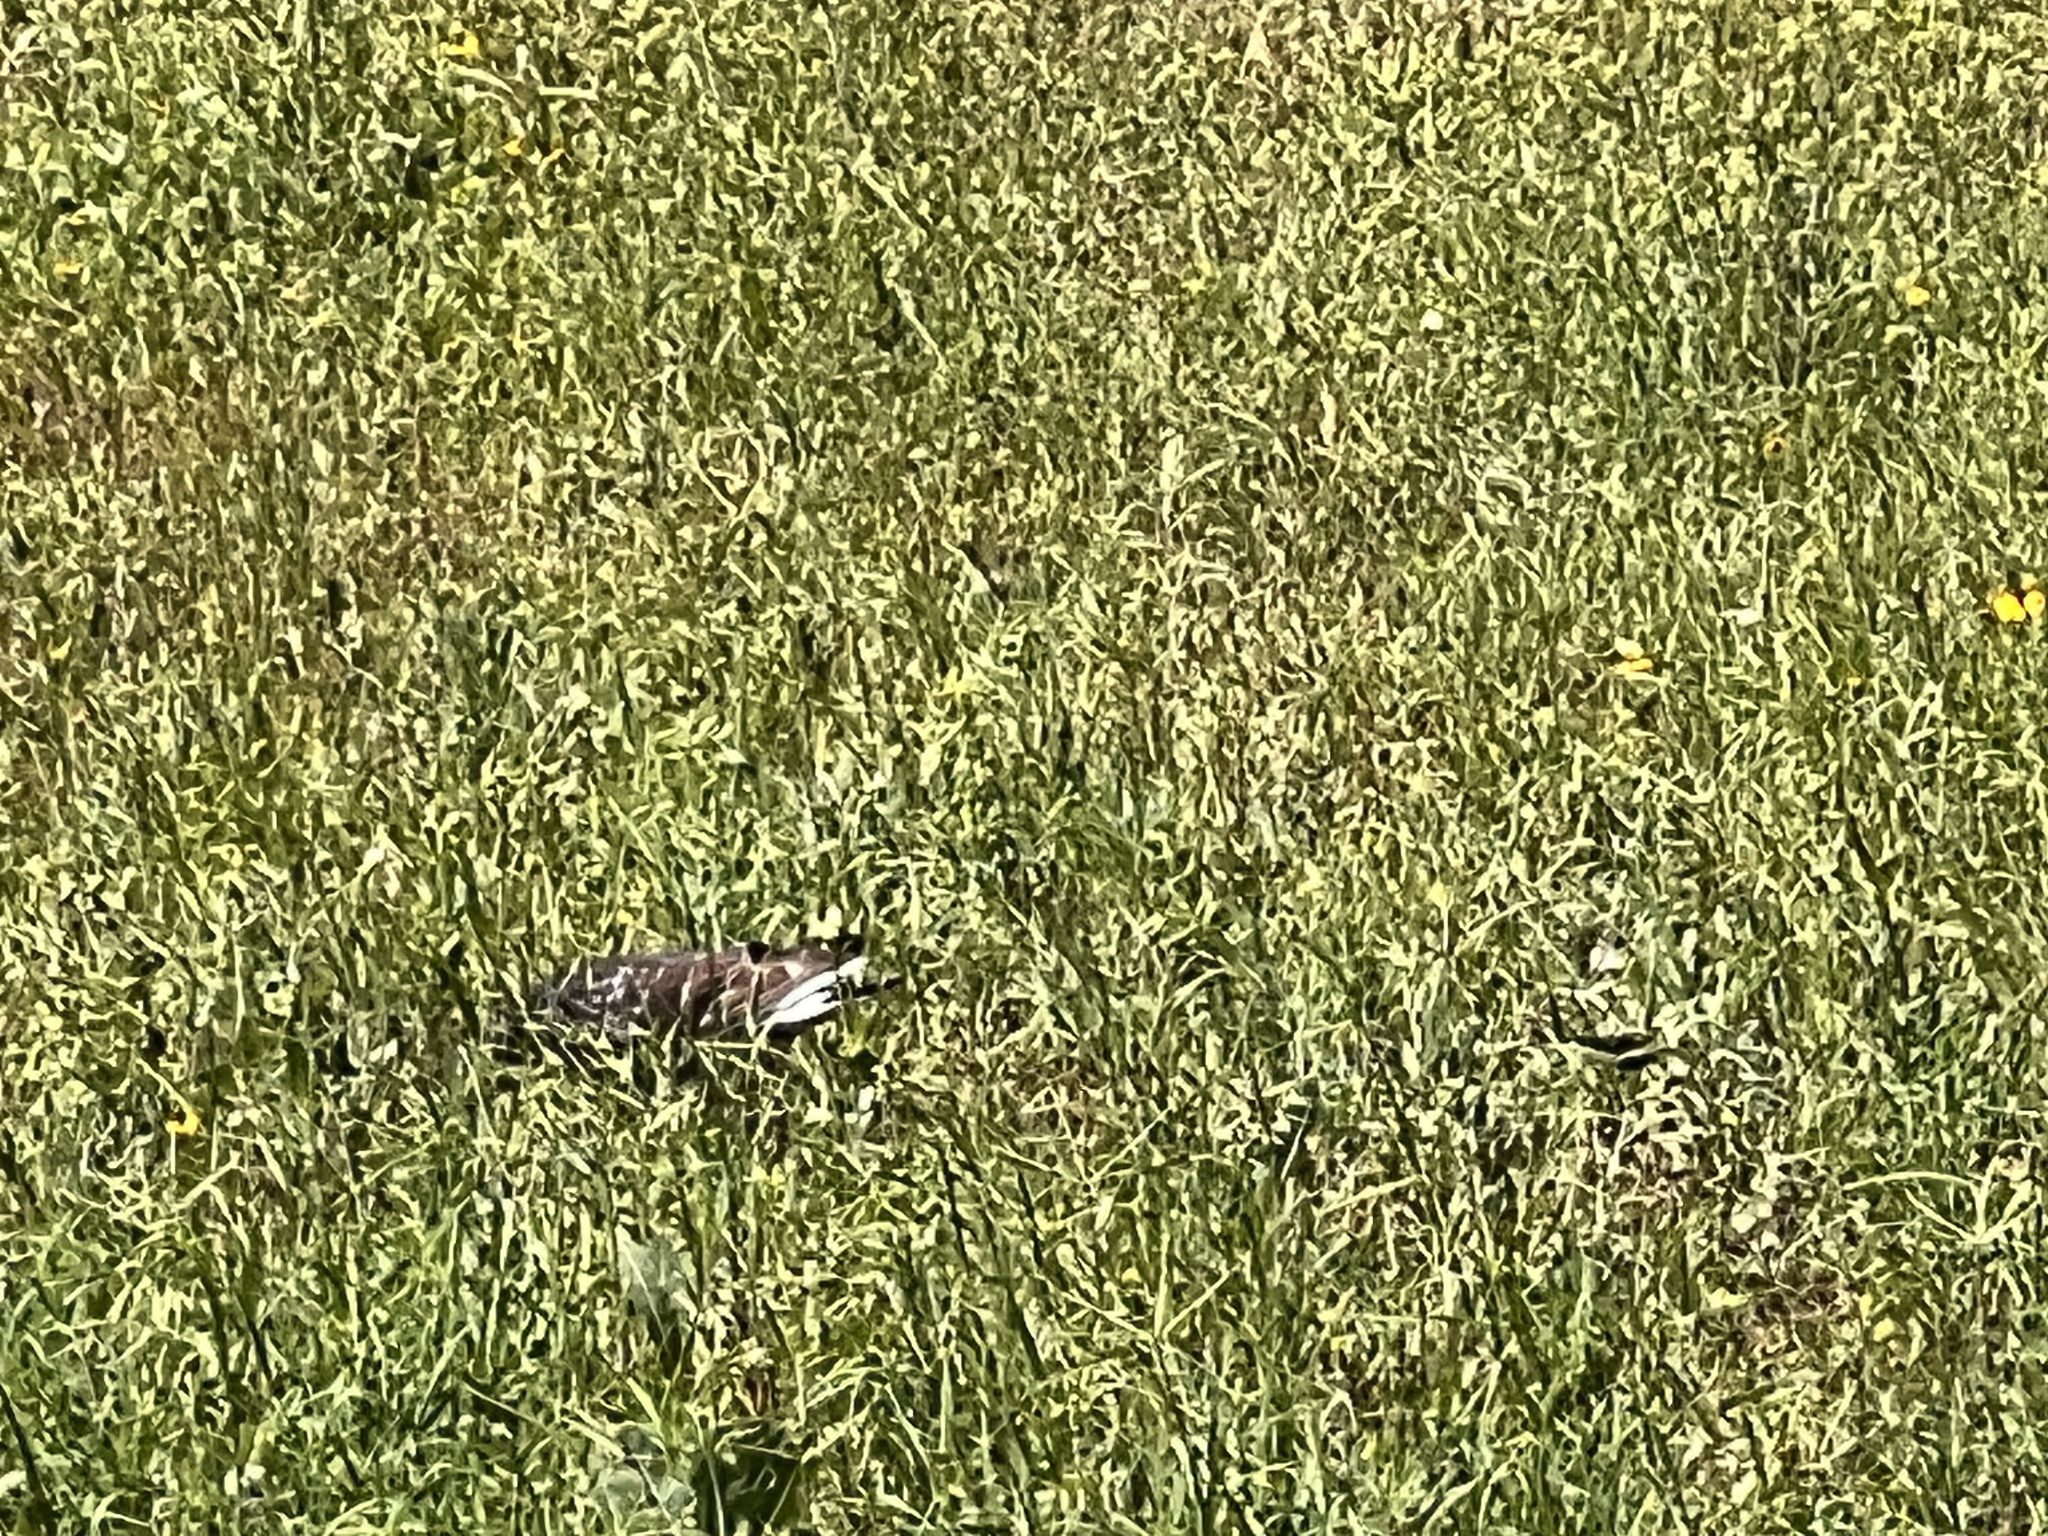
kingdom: Animalia
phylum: Chordata
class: Aves
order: Columbiformes
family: Columbidae
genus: Columba
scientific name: Columba livia
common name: Rock pigeon
